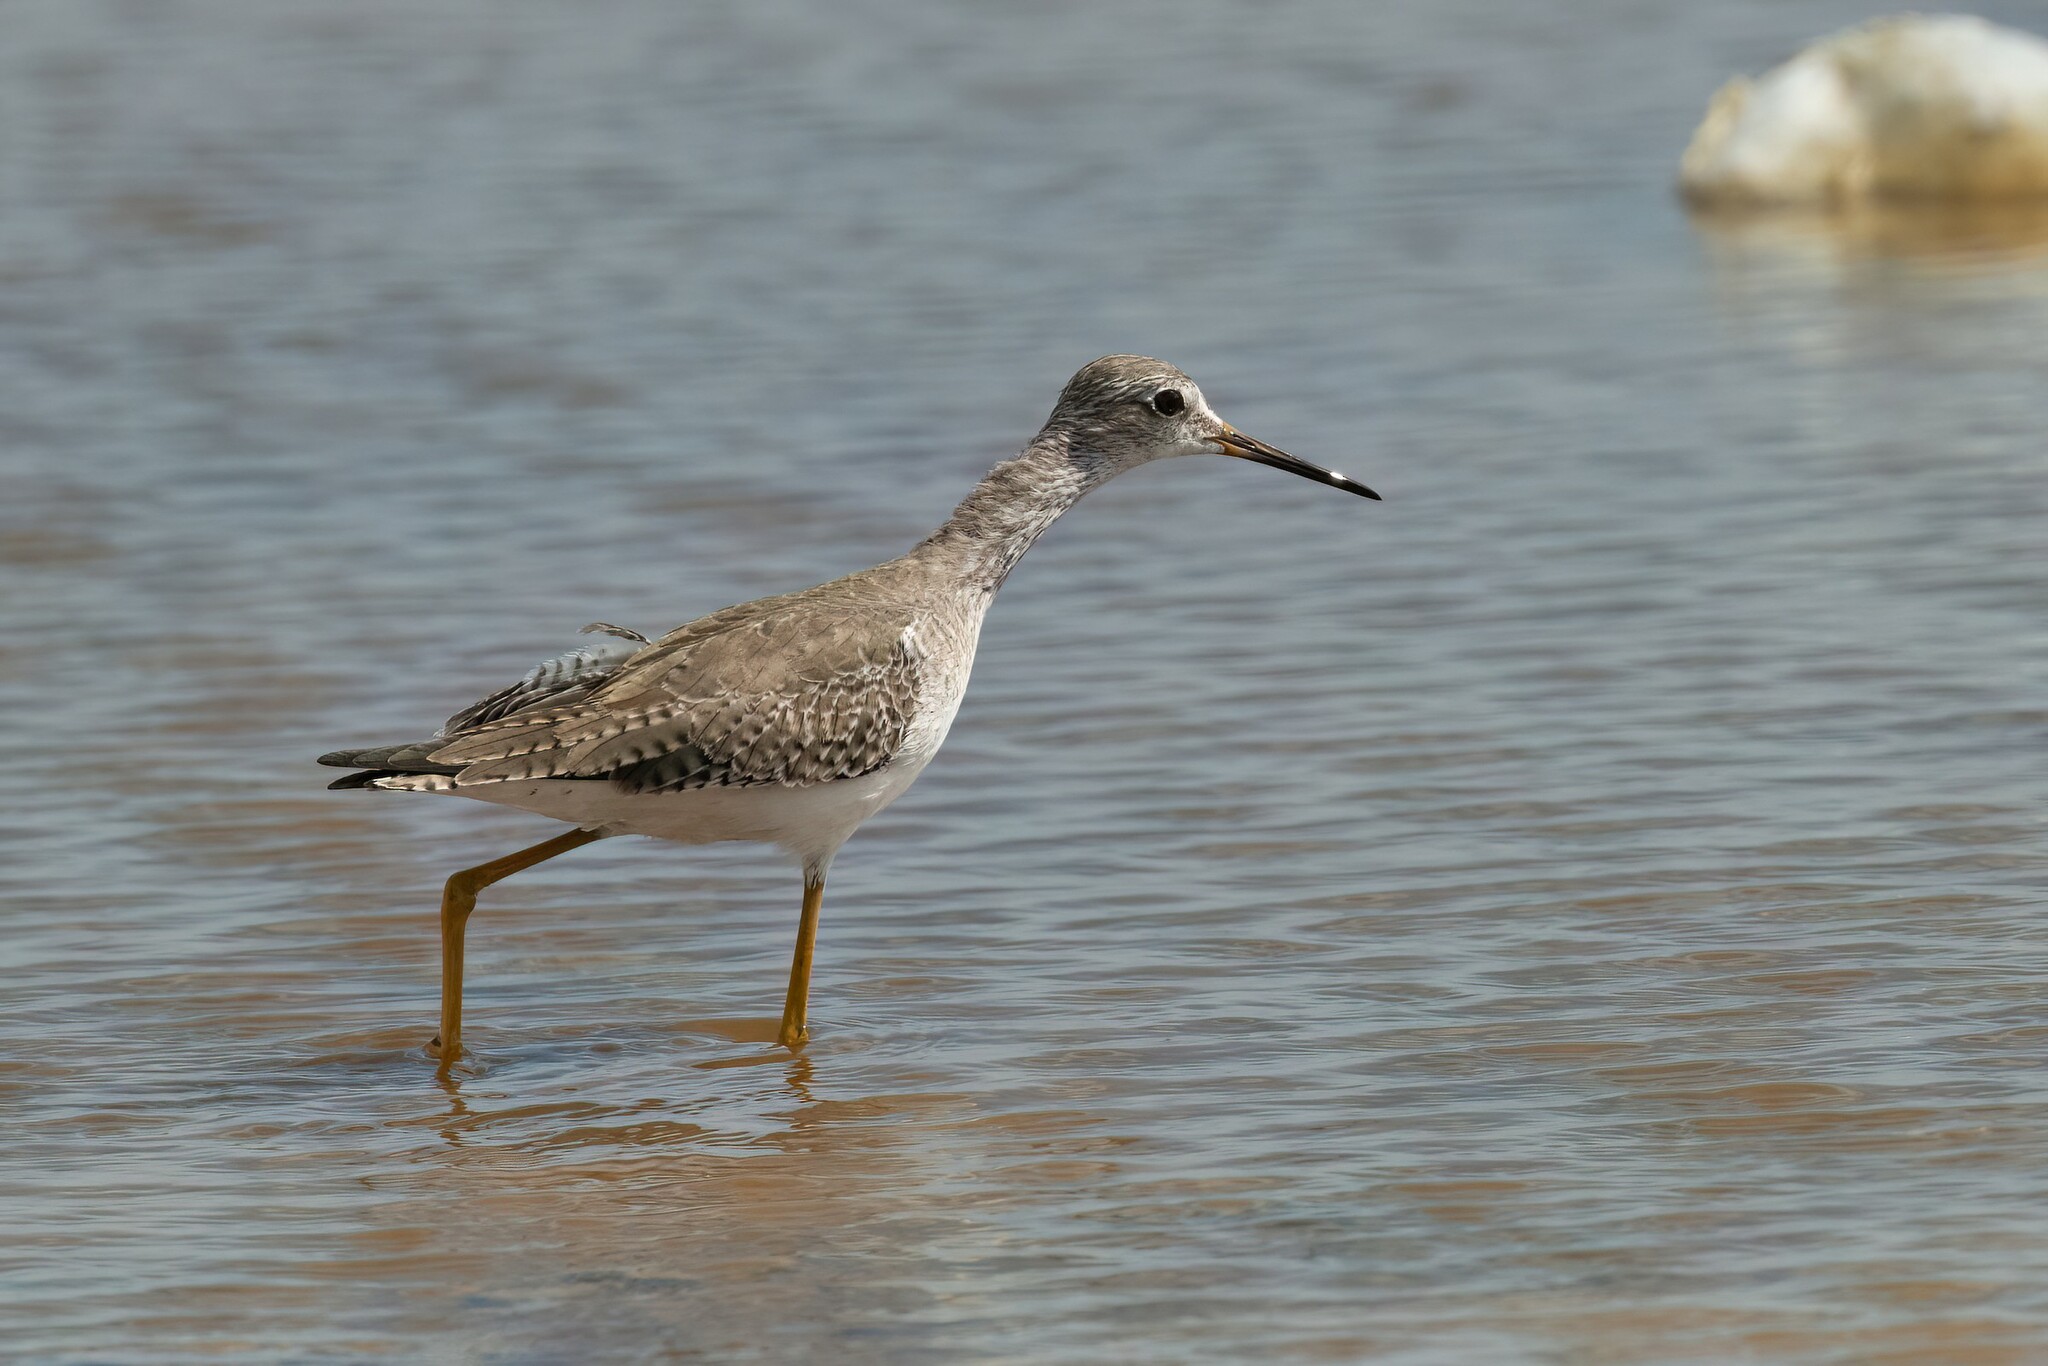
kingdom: Animalia
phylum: Chordata
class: Aves
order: Charadriiformes
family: Scolopacidae
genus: Tringa
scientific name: Tringa flavipes
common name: Lesser yellowlegs
